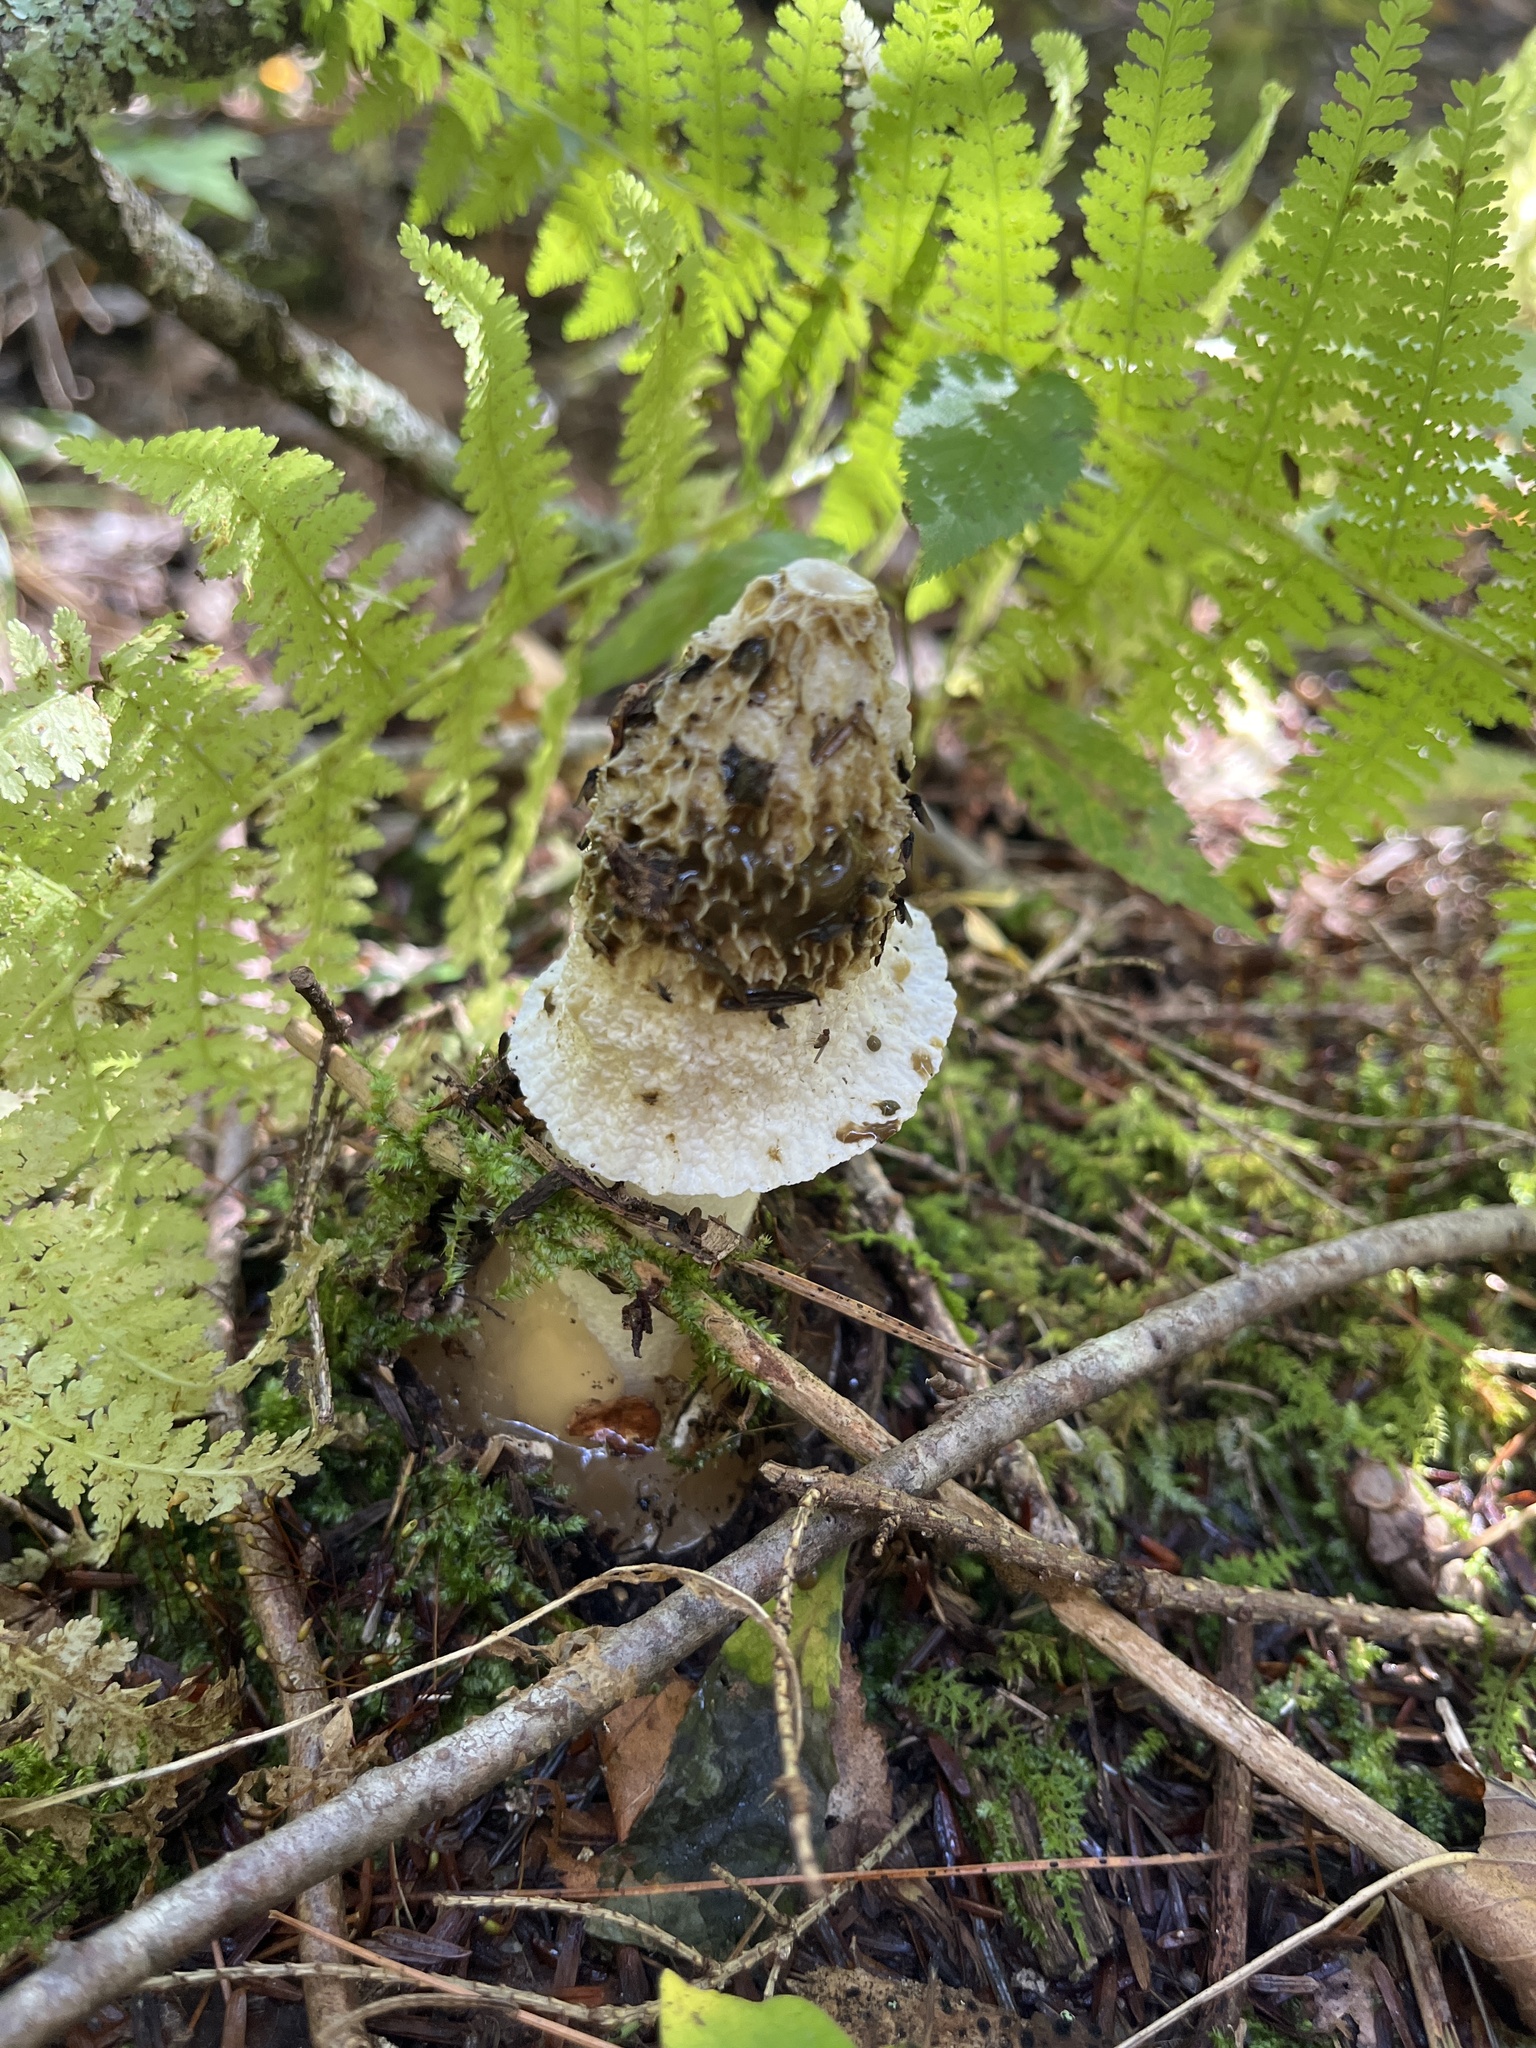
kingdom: Fungi
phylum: Basidiomycota
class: Agaricomycetes
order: Phallales
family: Phallaceae
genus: Phallus
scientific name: Phallus indusiatus
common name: Bridal veil stinkhorn
